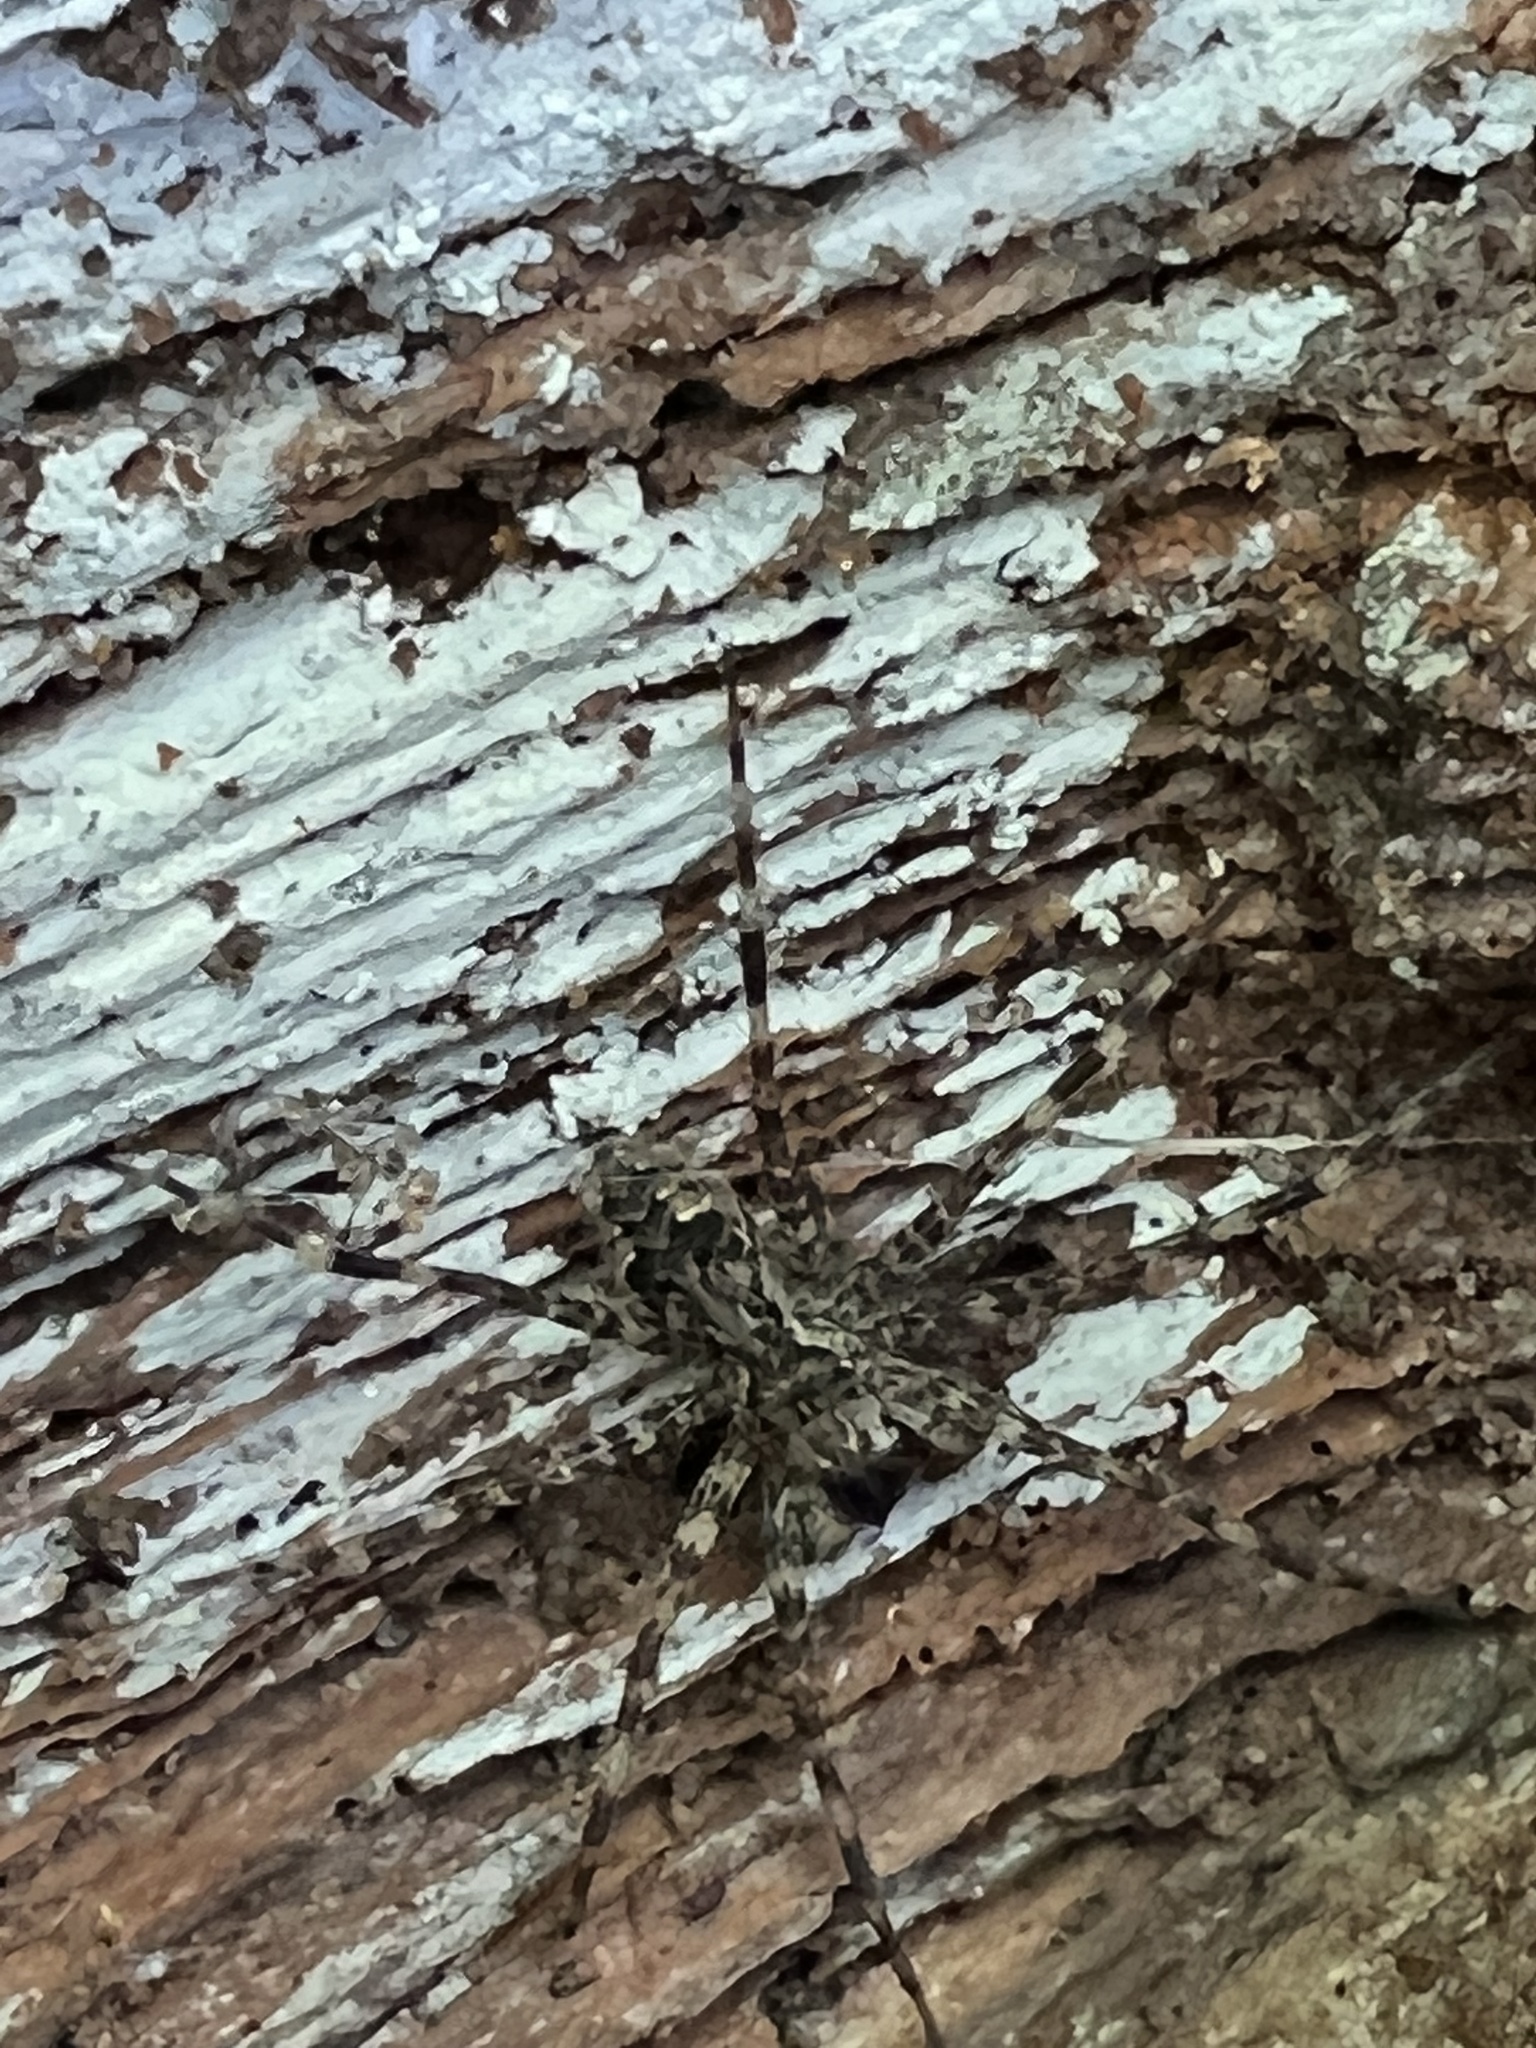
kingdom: Animalia
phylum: Arthropoda
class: Arachnida
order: Araneae
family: Pisauridae
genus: Dolomedes
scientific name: Dolomedes tenebrosus
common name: Dark fishing spider
